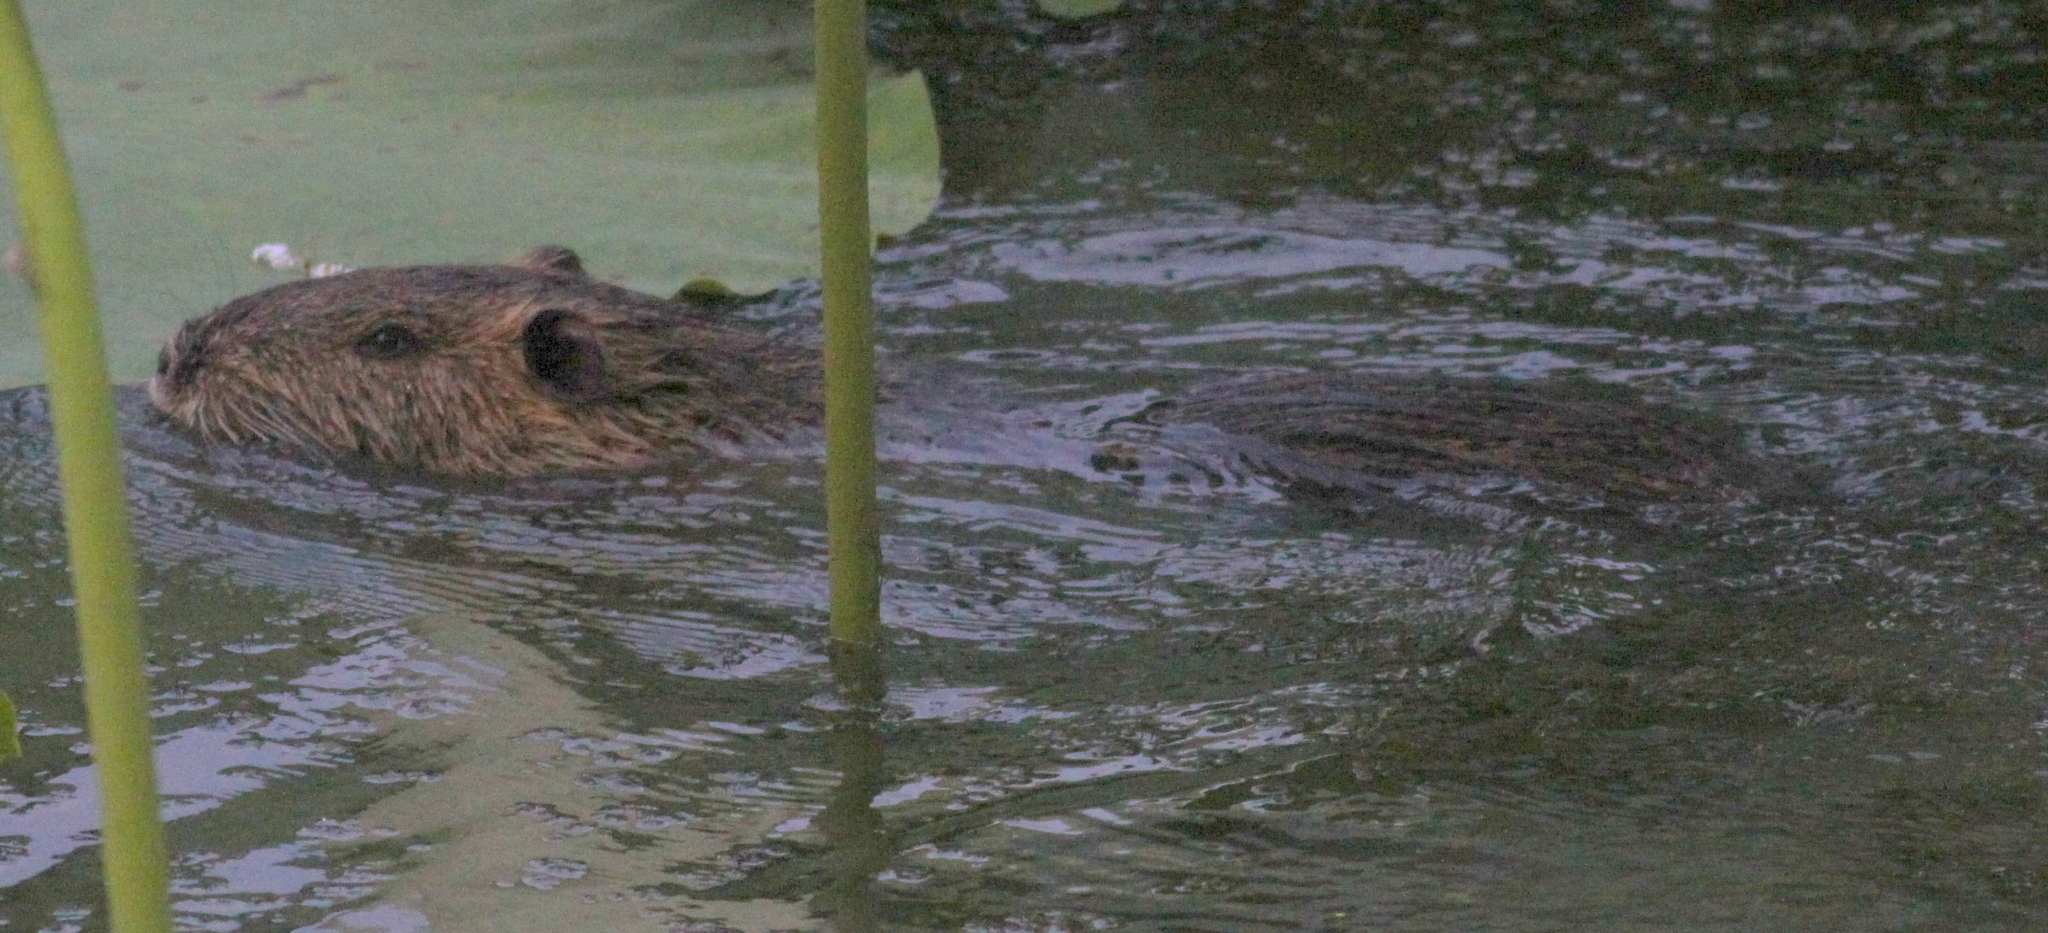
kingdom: Animalia
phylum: Chordata
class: Mammalia
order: Rodentia
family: Myocastoridae
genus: Myocastor
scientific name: Myocastor coypus
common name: Coypu
